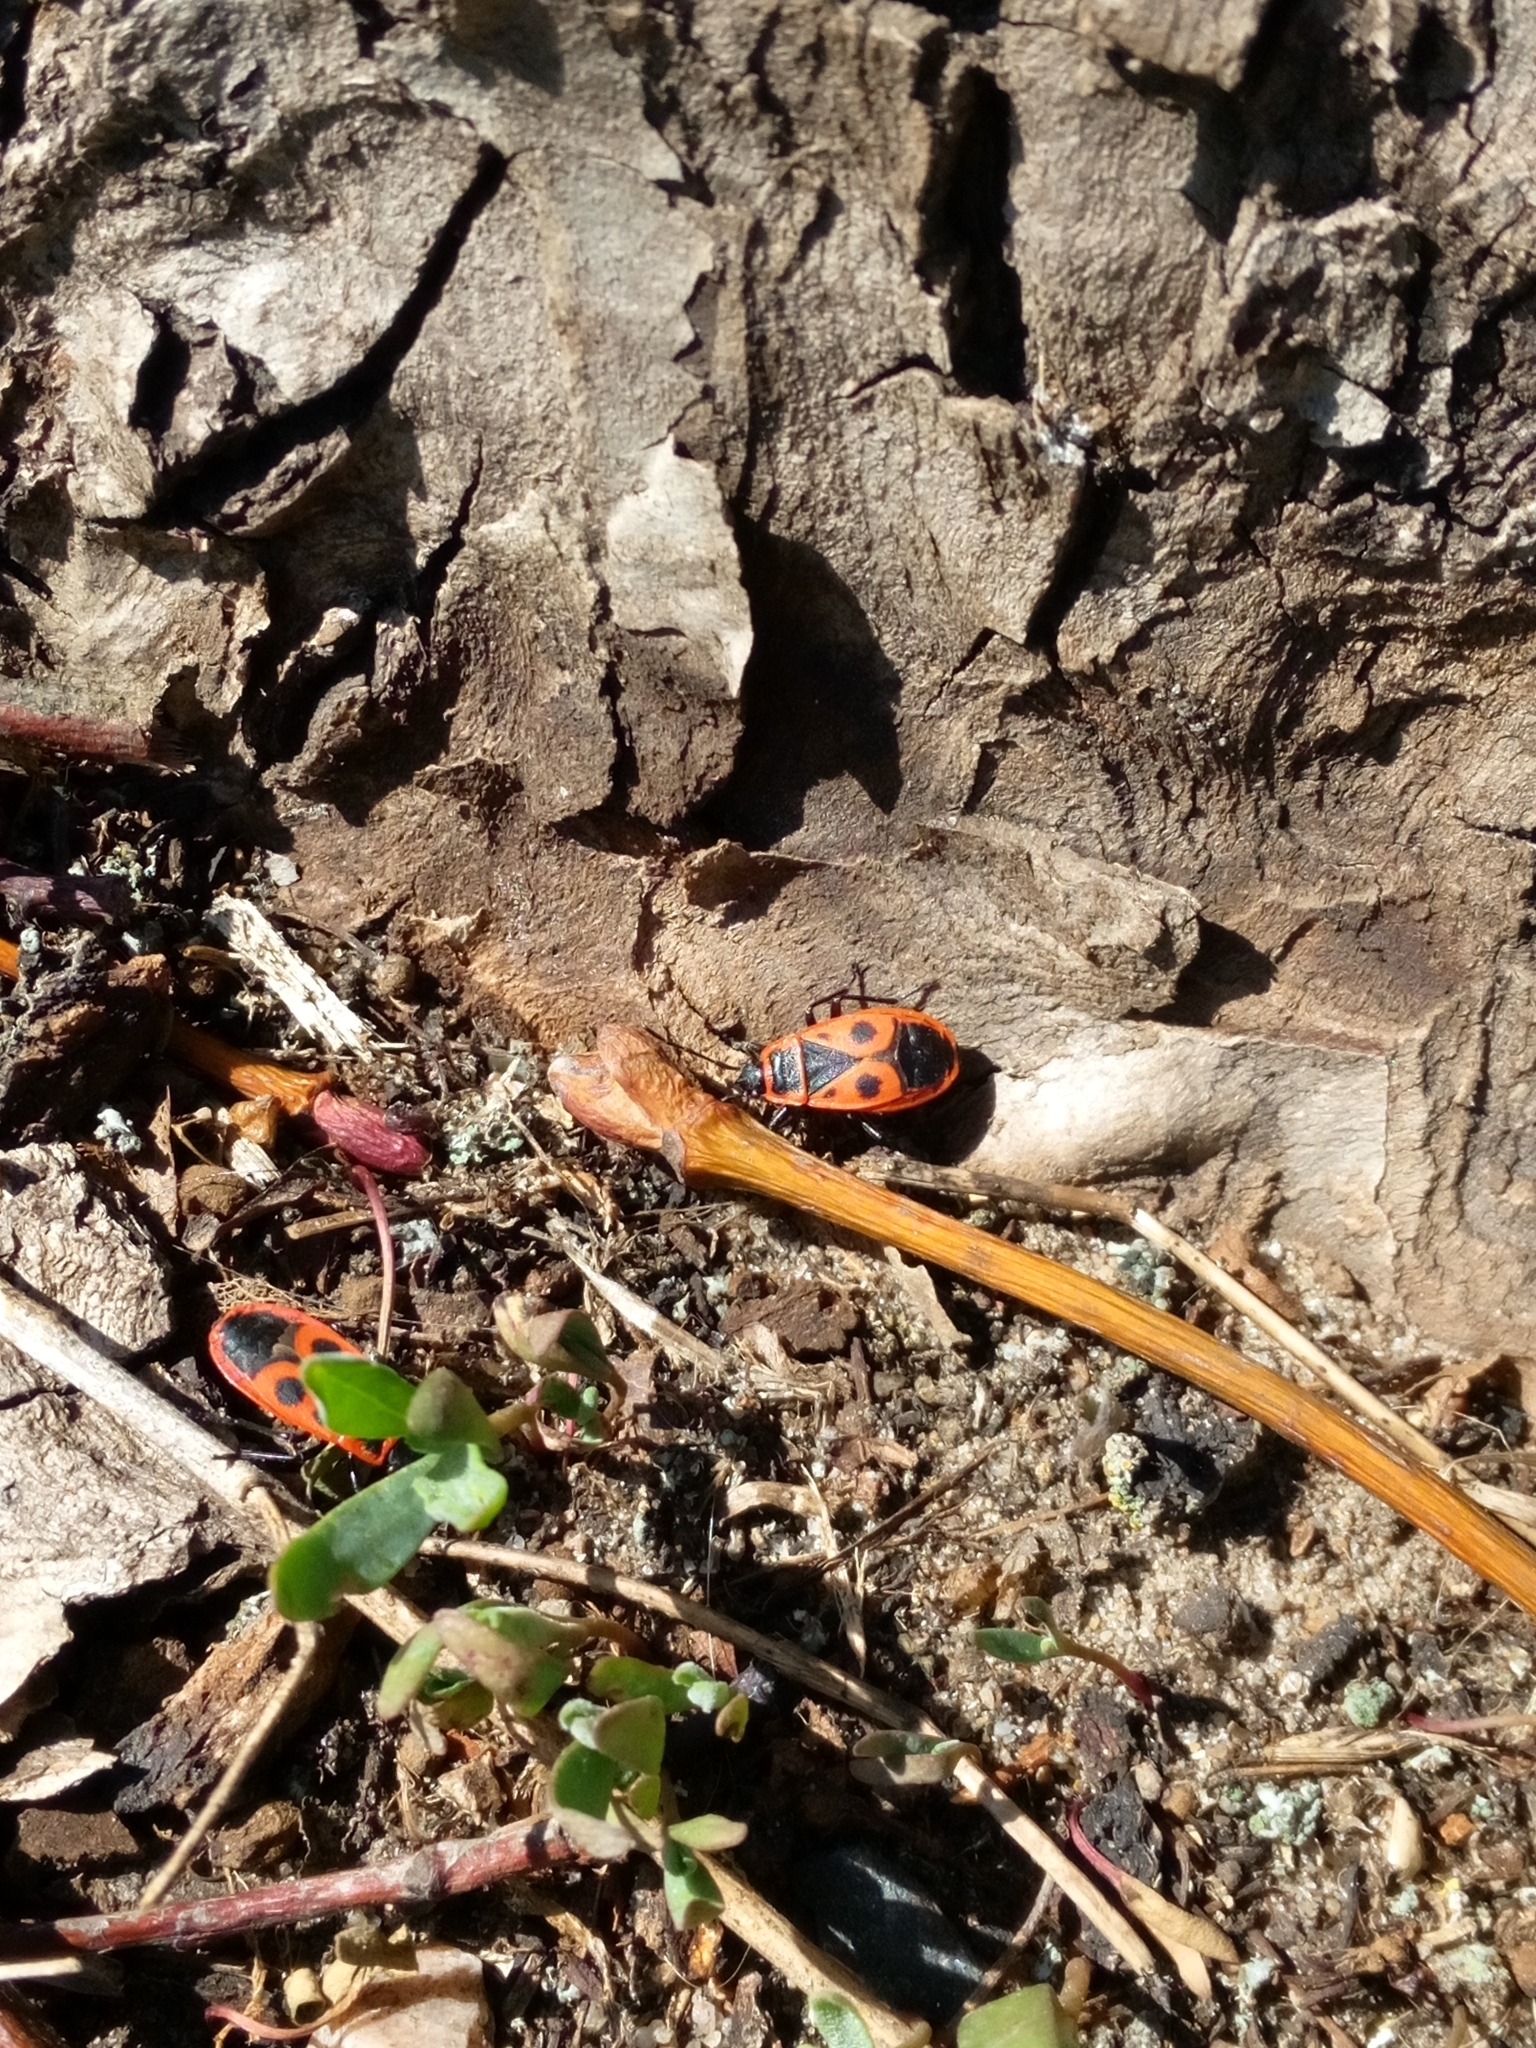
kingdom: Animalia
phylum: Arthropoda
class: Insecta
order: Hemiptera
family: Pyrrhocoridae
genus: Pyrrhocoris
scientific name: Pyrrhocoris apterus
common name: Firebug
